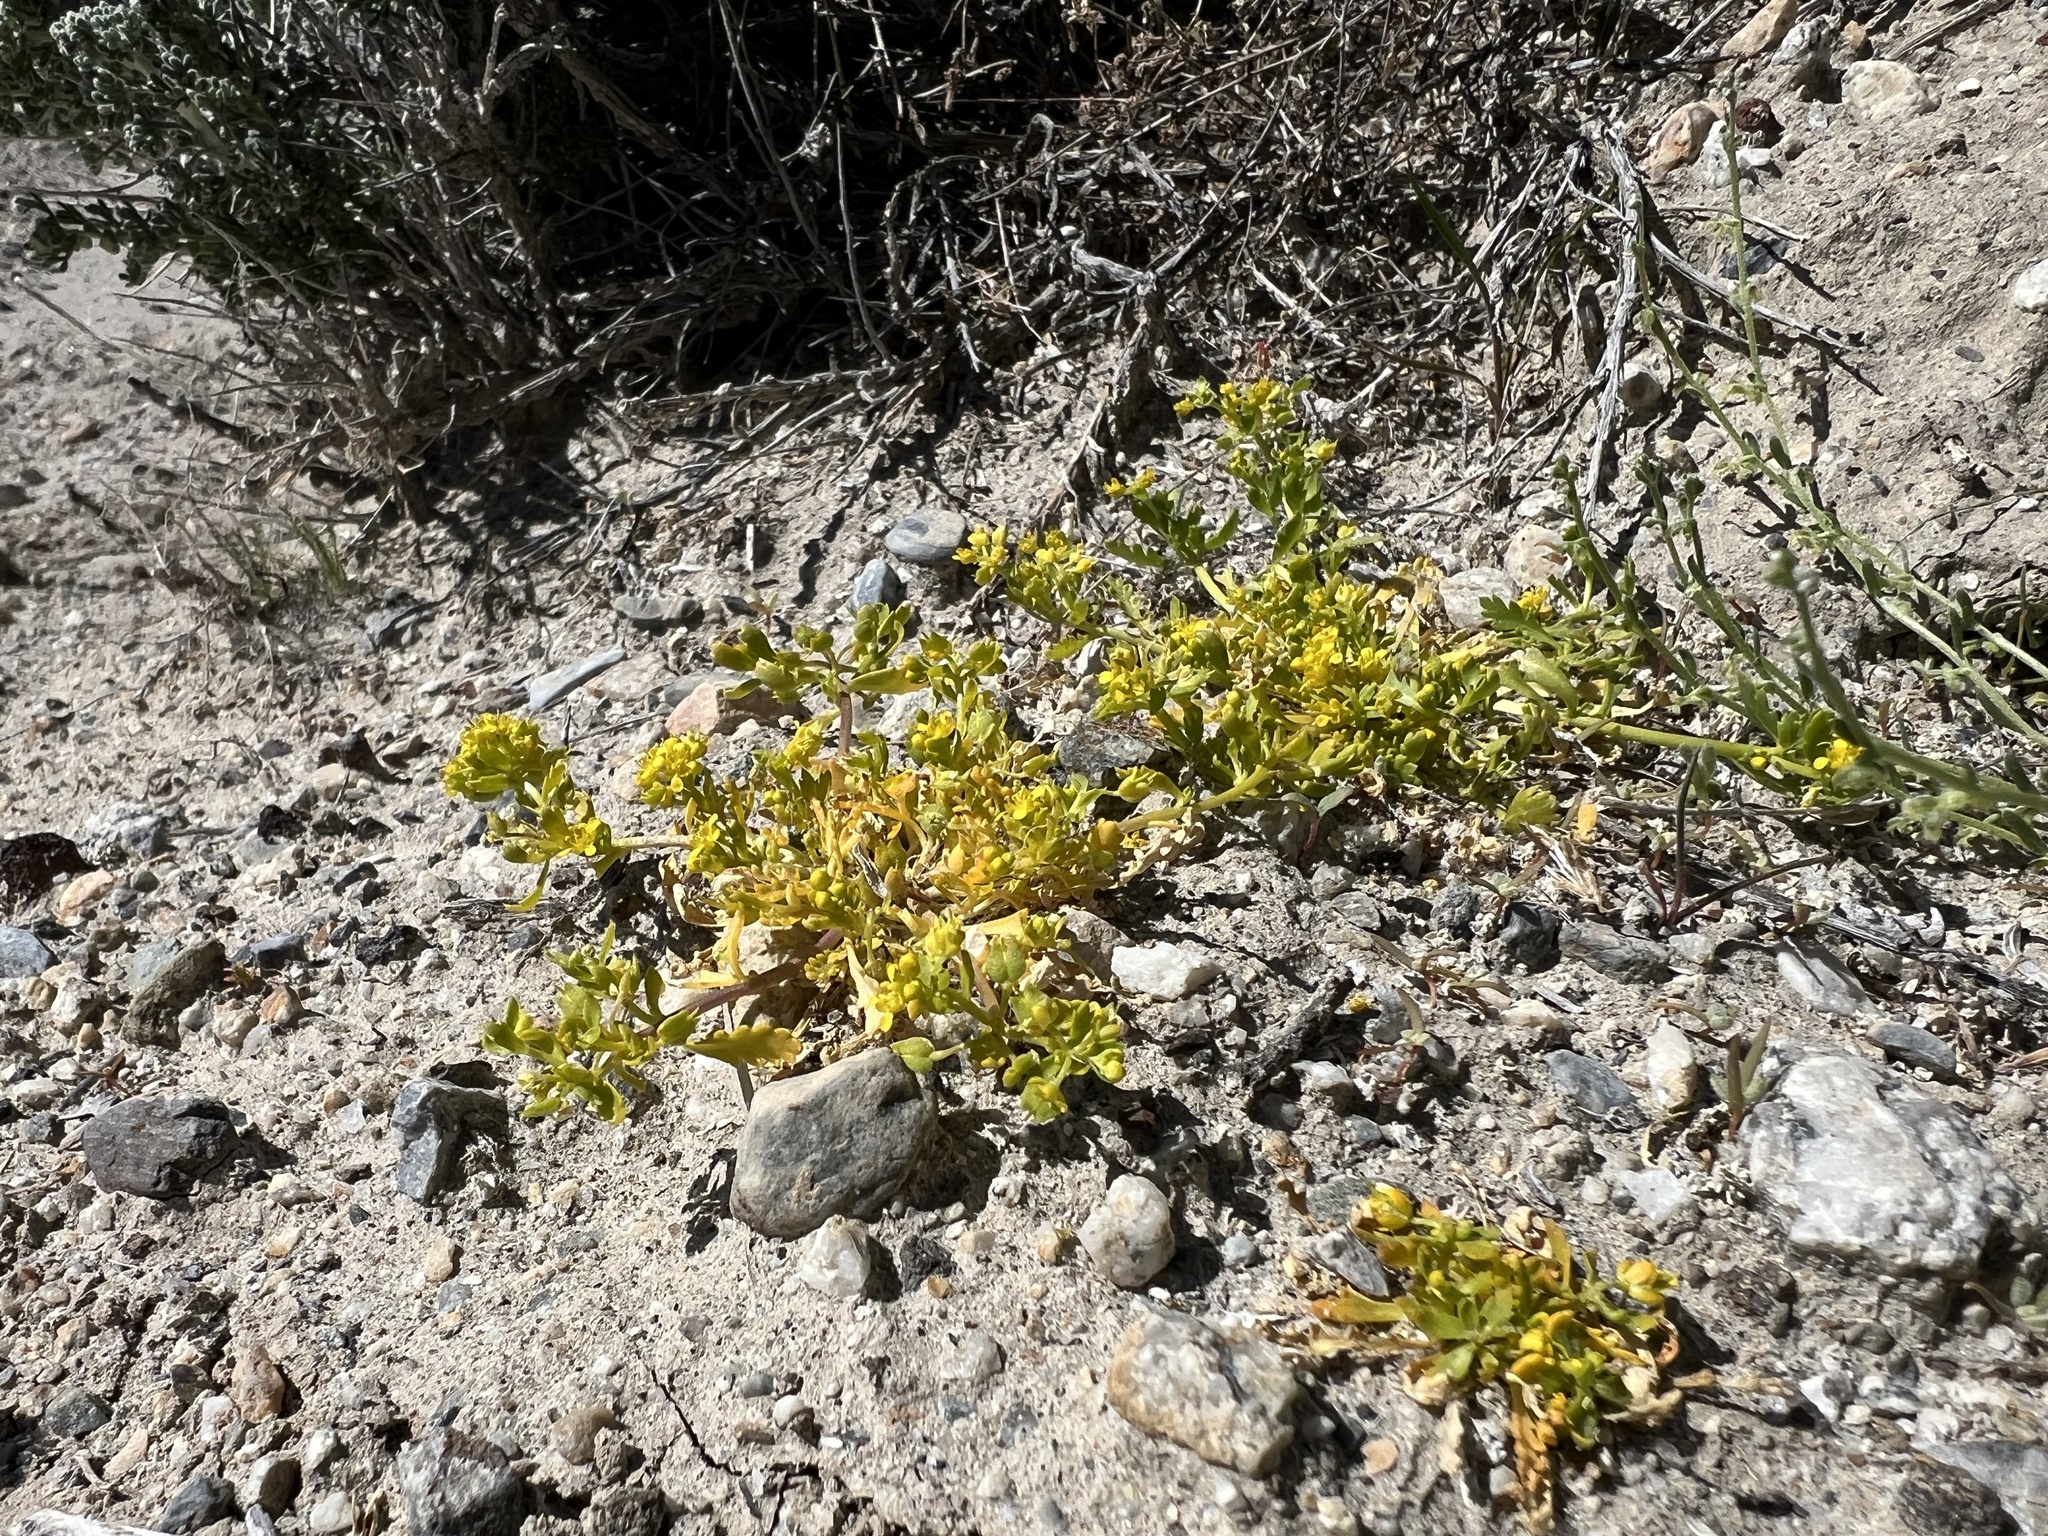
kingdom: Plantae
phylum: Tracheophyta
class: Magnoliopsida
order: Brassicales
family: Brassicaceae
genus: Lepidium
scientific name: Lepidium flavum
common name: Yellow pepperwort
